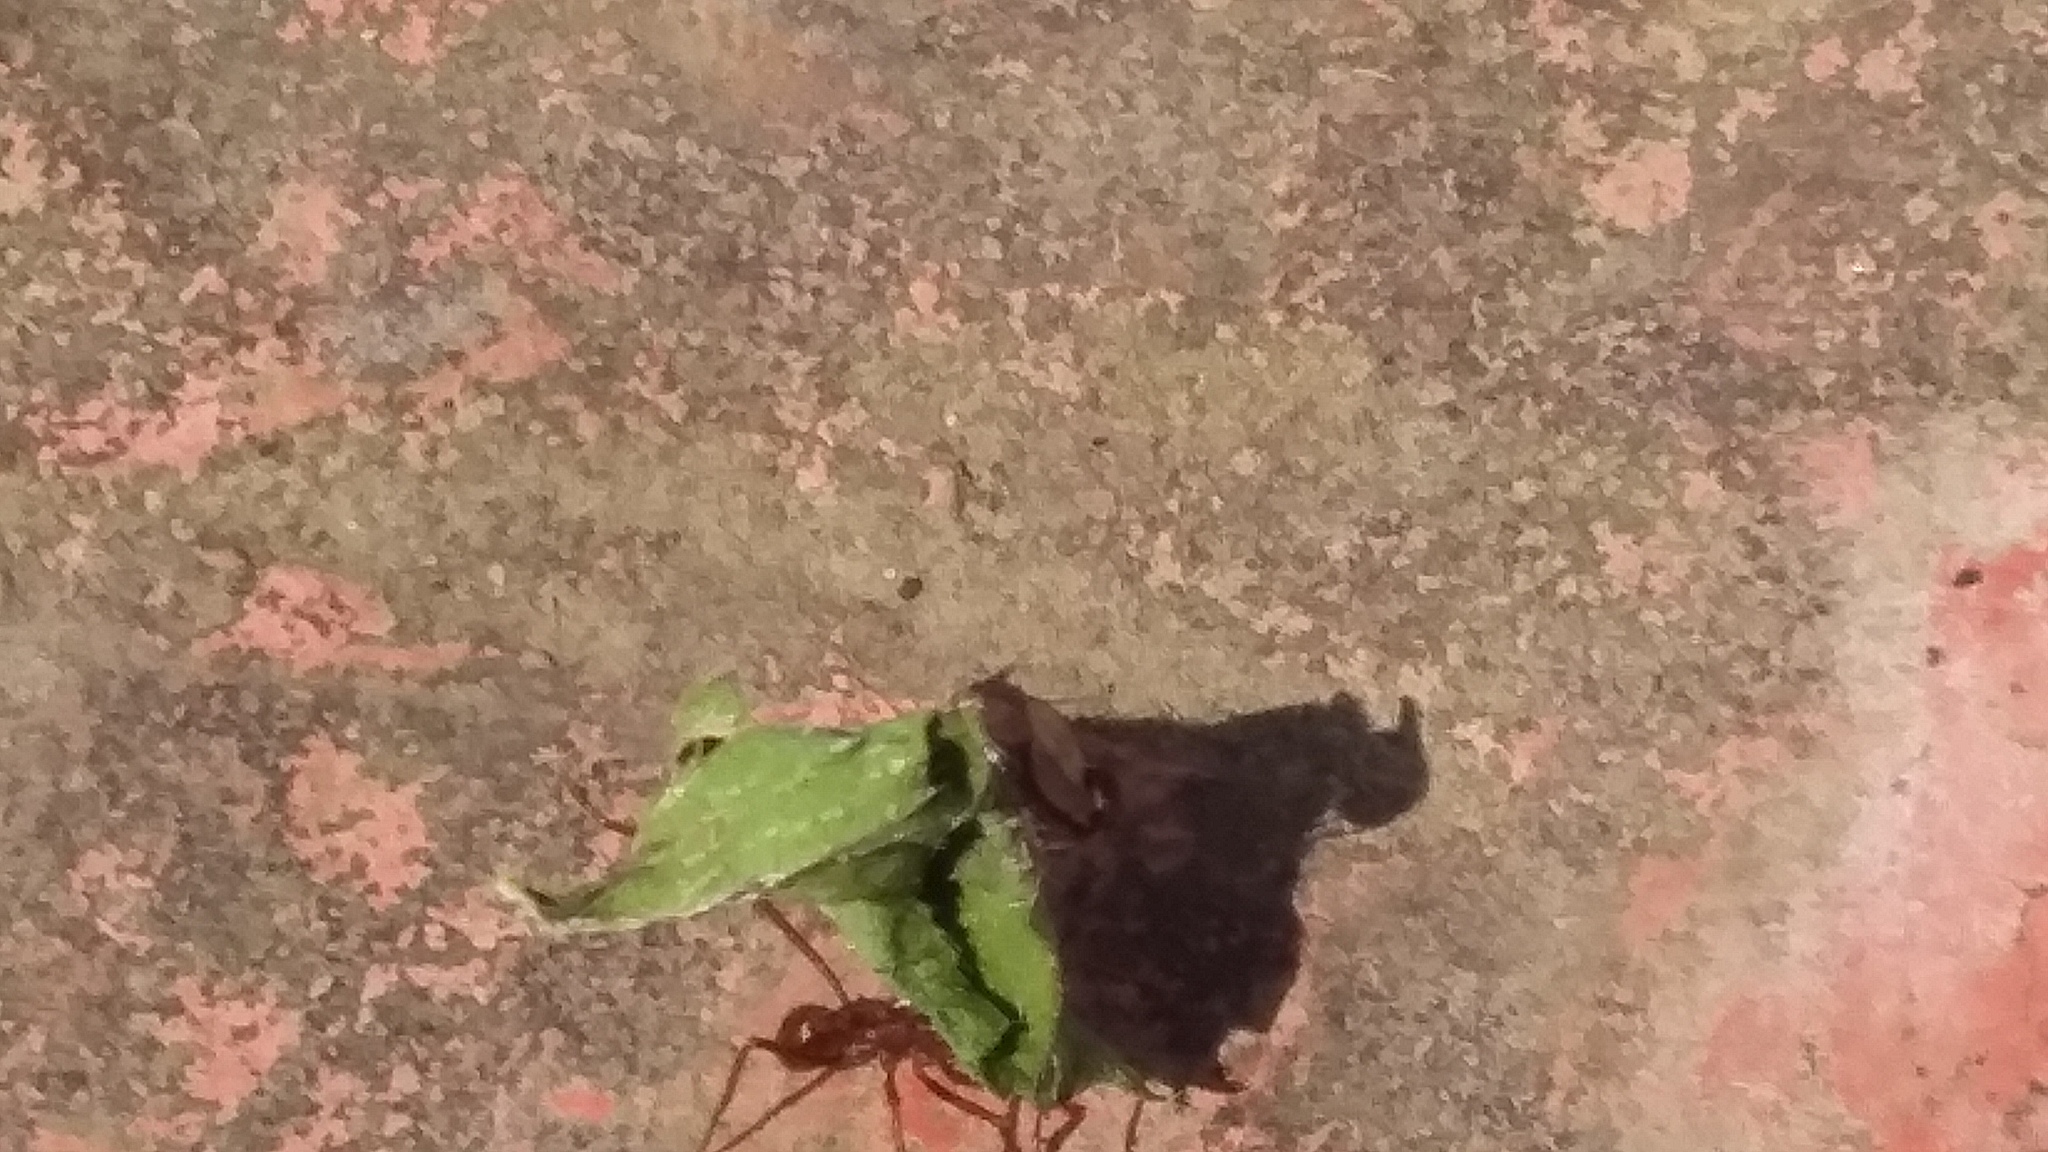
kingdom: Animalia
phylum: Arthropoda
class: Insecta
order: Hymenoptera
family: Formicidae
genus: Atta
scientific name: Atta mexicana
